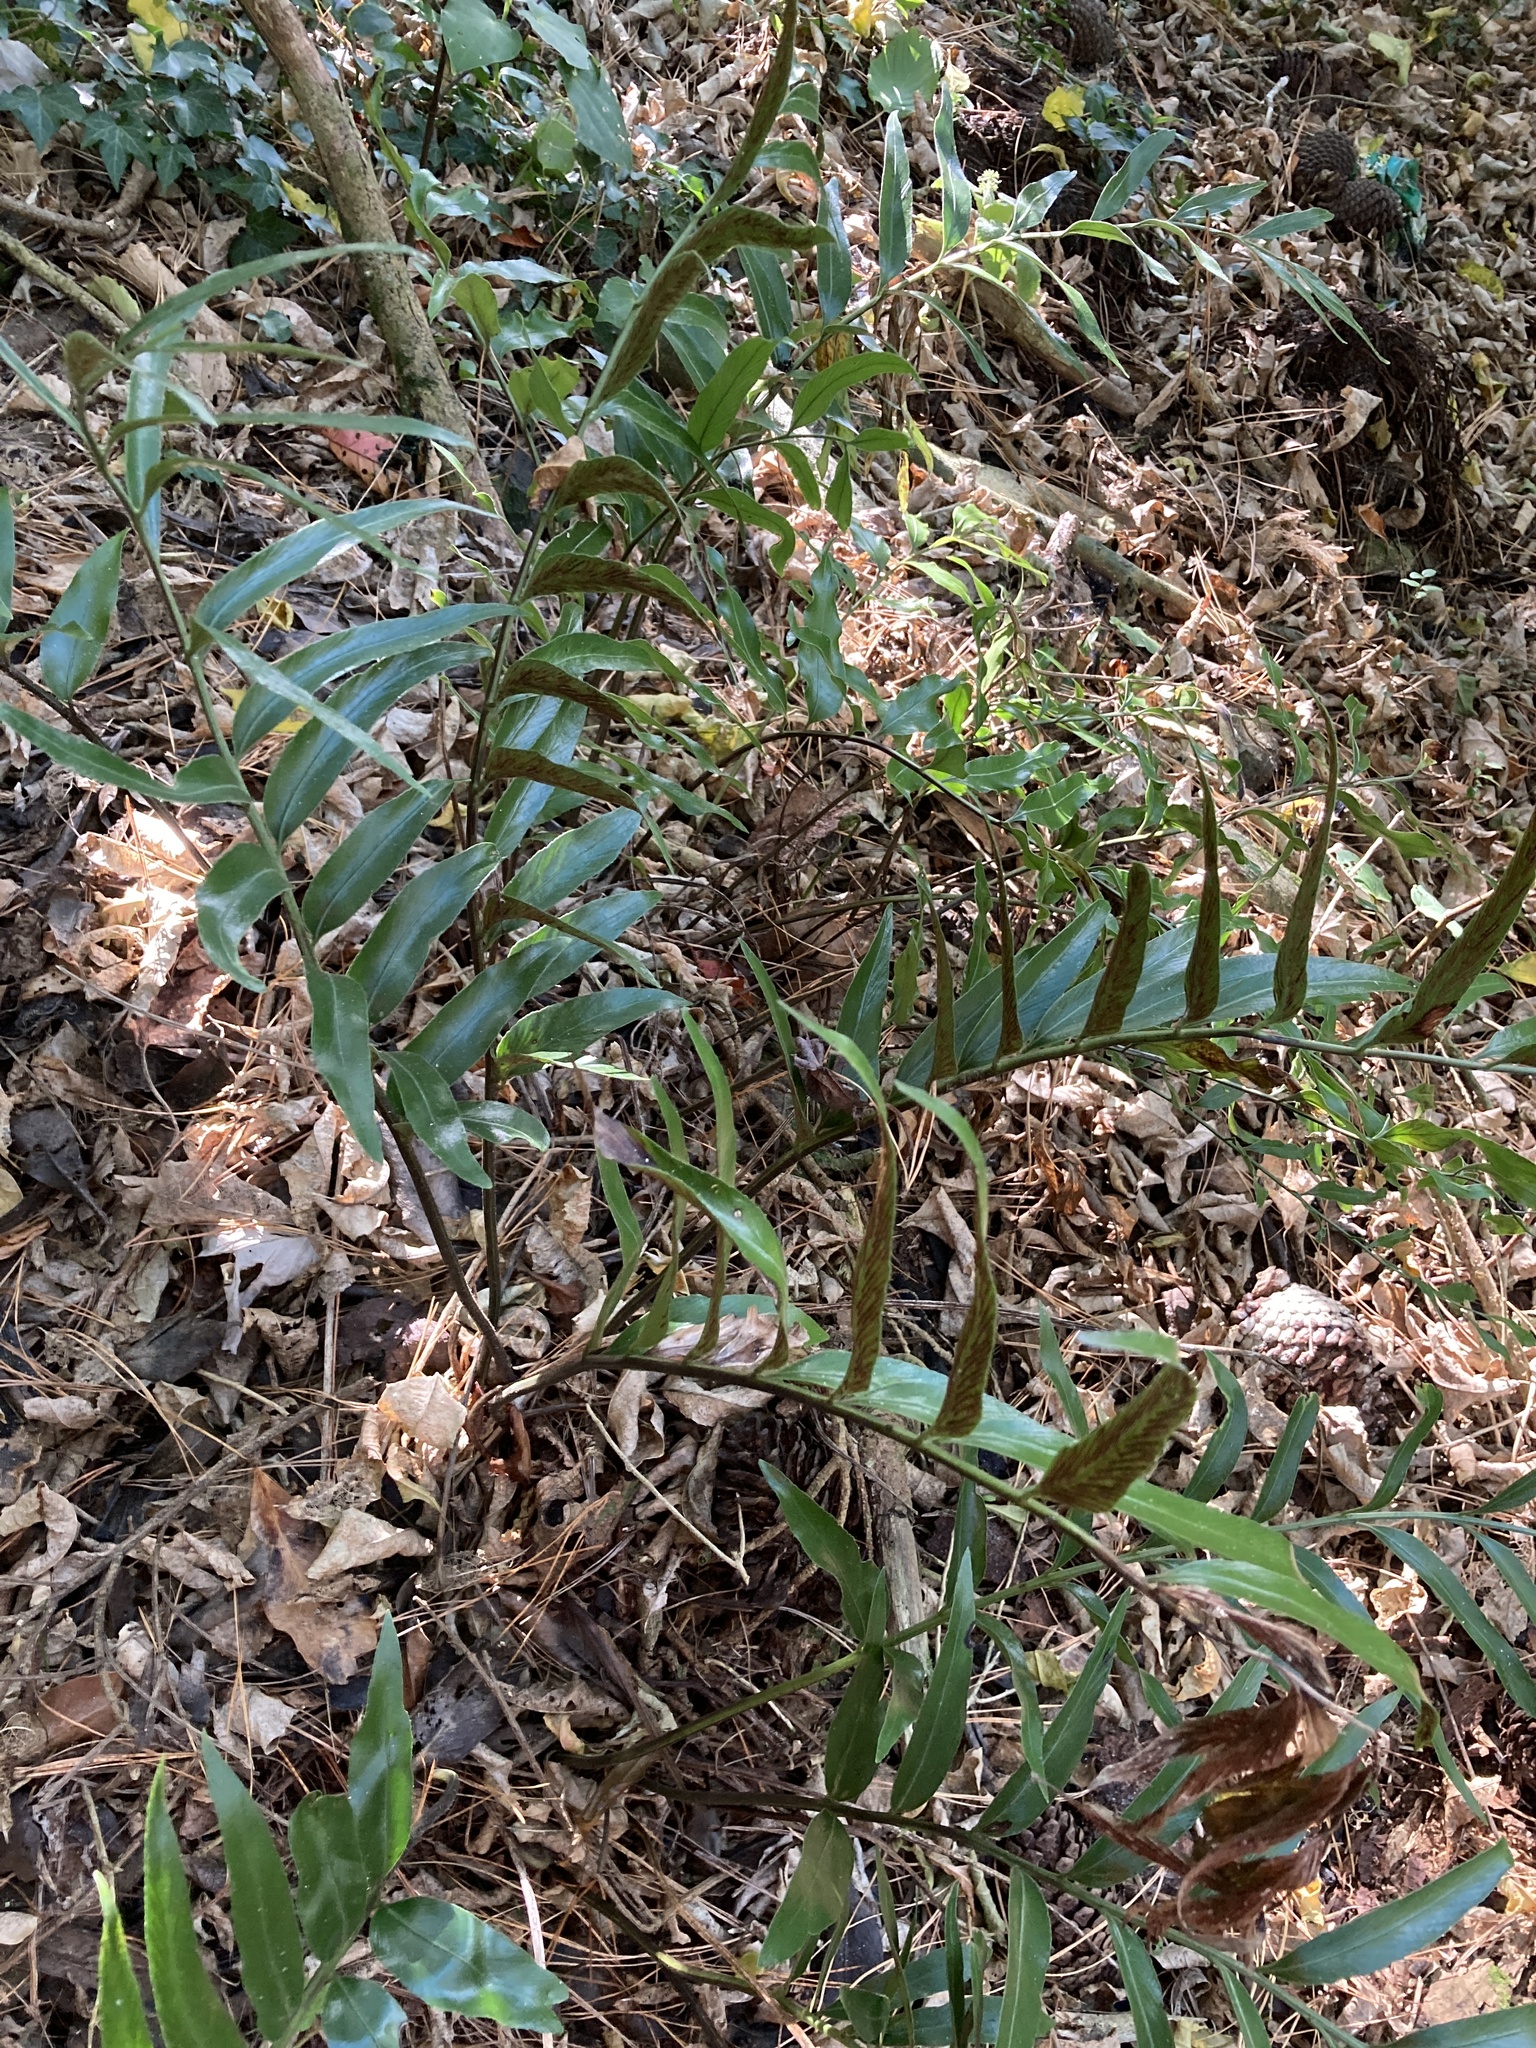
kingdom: Plantae
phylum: Tracheophyta
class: Polypodiopsida
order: Polypodiales
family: Aspleniaceae
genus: Asplenium
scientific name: Asplenium oblongifolium
